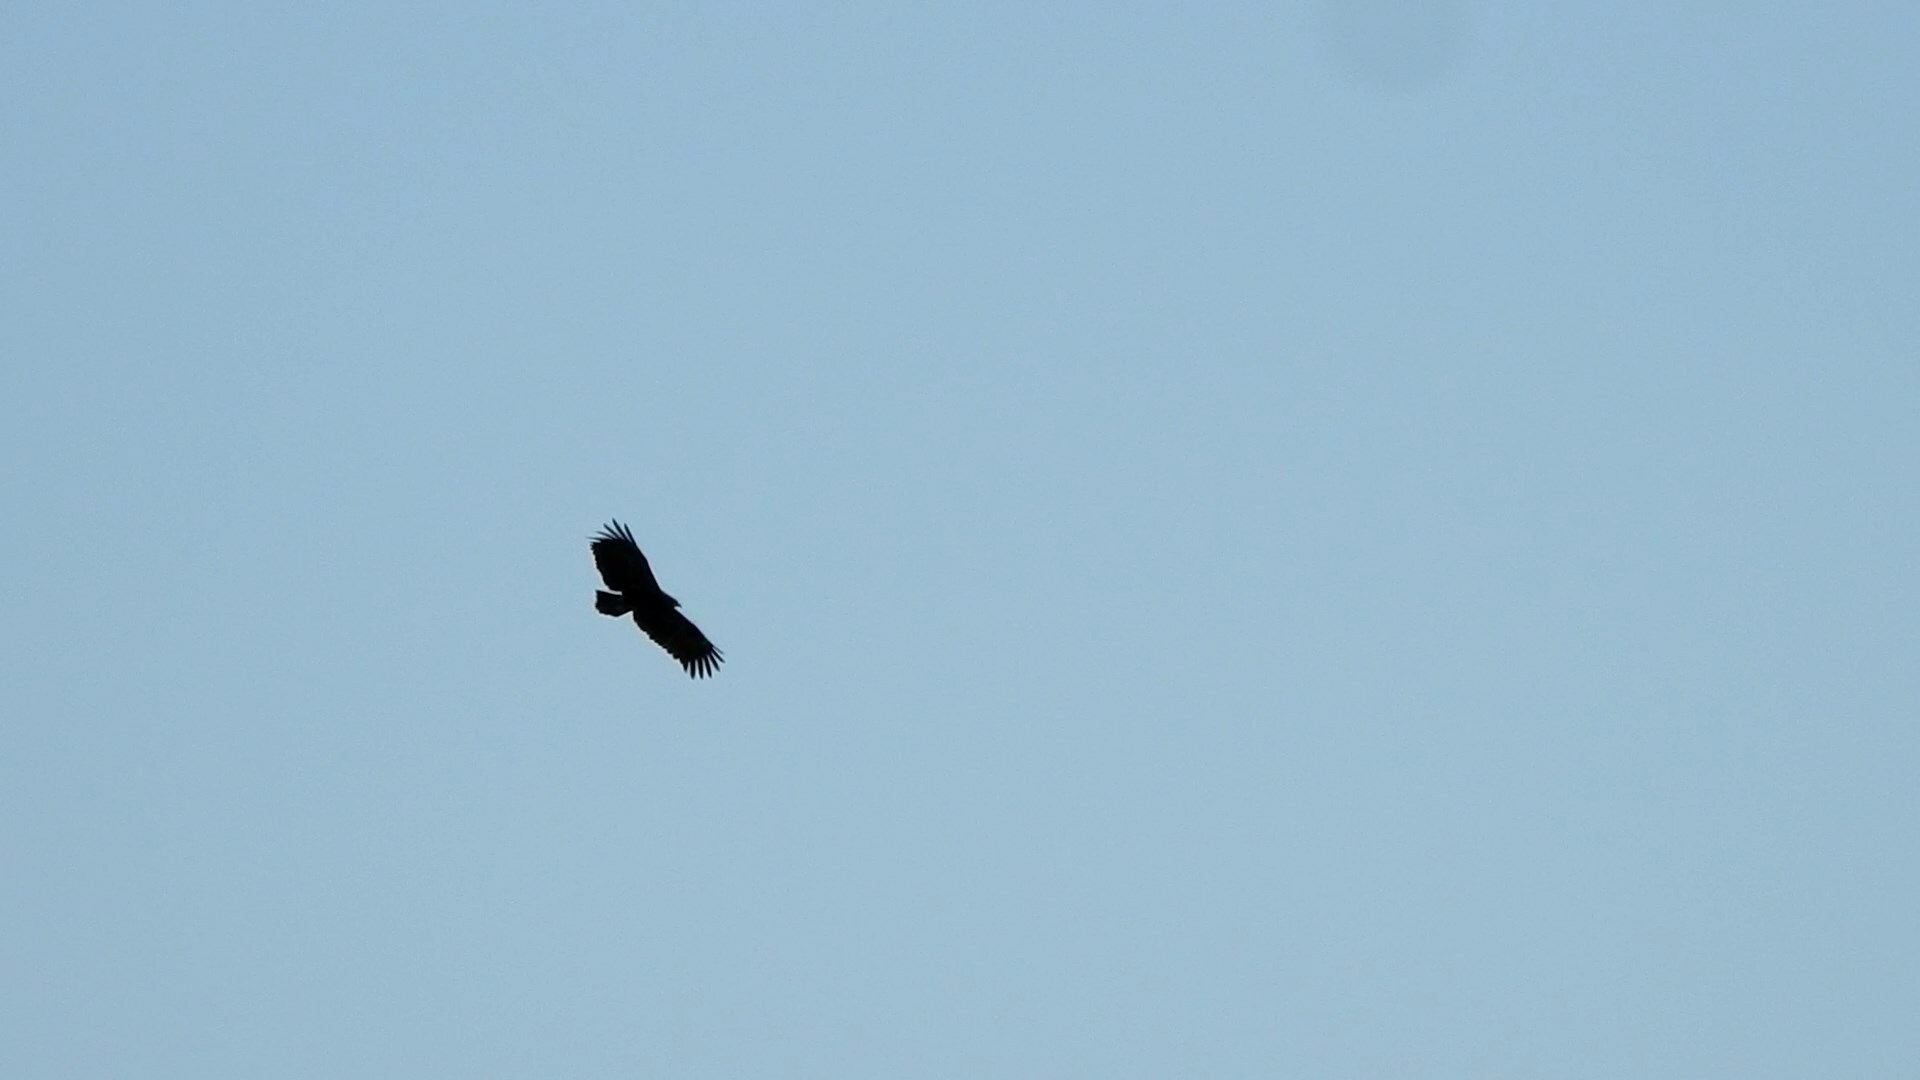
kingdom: Animalia
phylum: Chordata
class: Aves
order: Accipitriformes
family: Accipitridae
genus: Aquila
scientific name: Aquila clanga
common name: Greater spotted eagle
